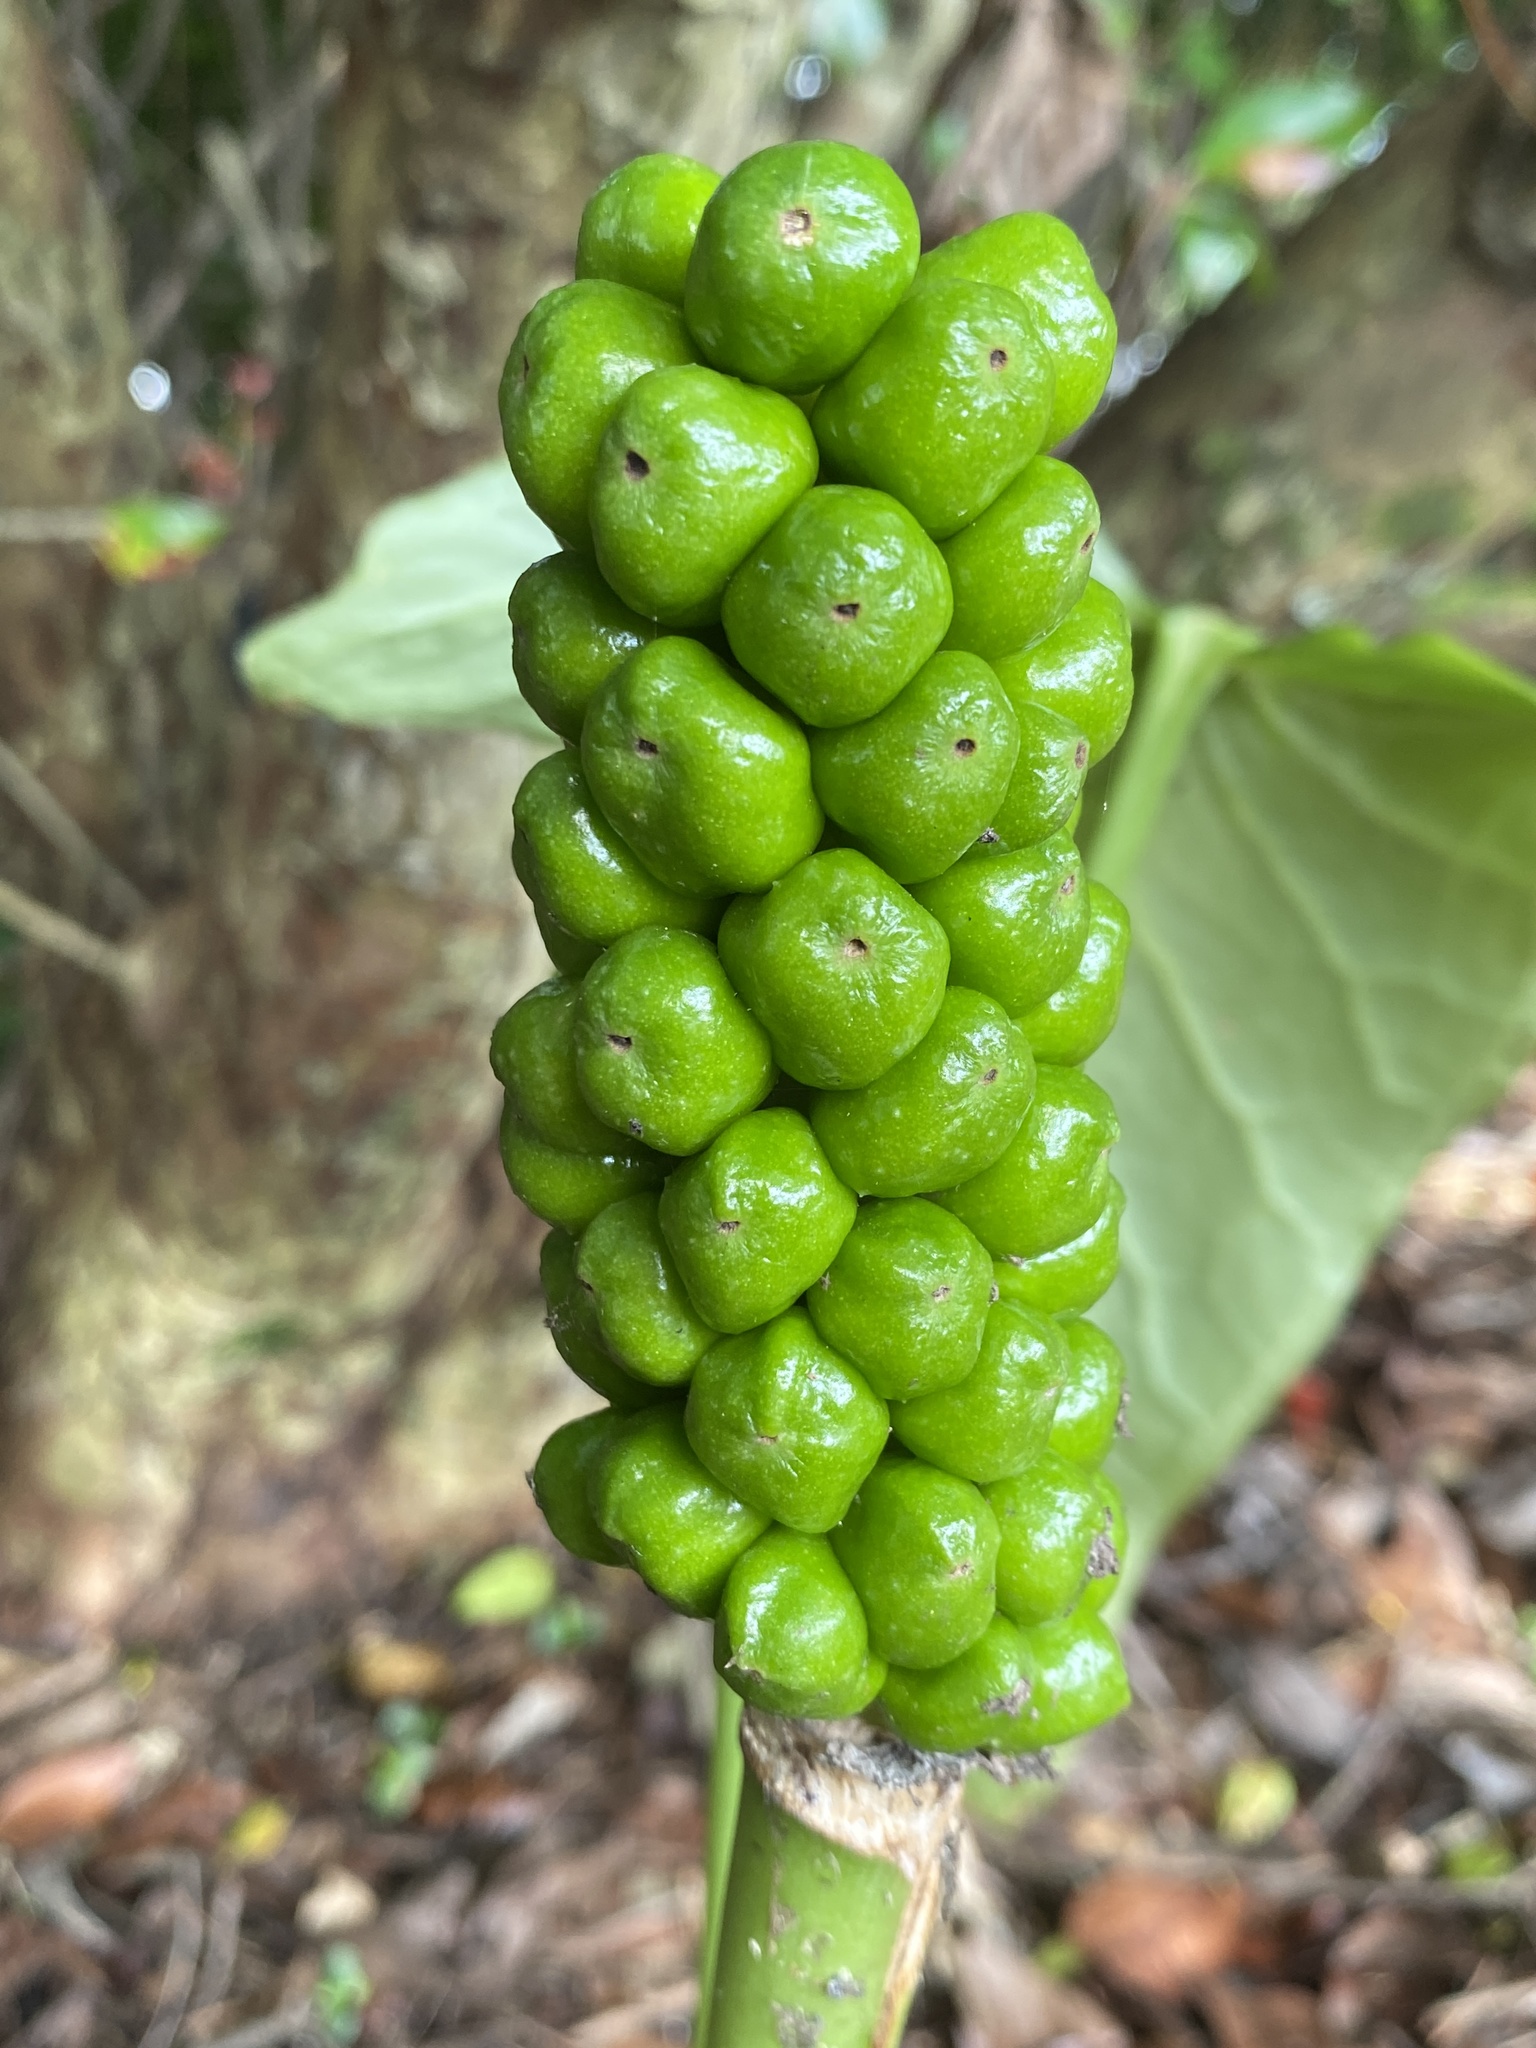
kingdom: Plantae
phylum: Tracheophyta
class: Liliopsida
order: Alismatales
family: Araceae
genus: Arum
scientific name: Arum italicum
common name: Italian lords-and-ladies
